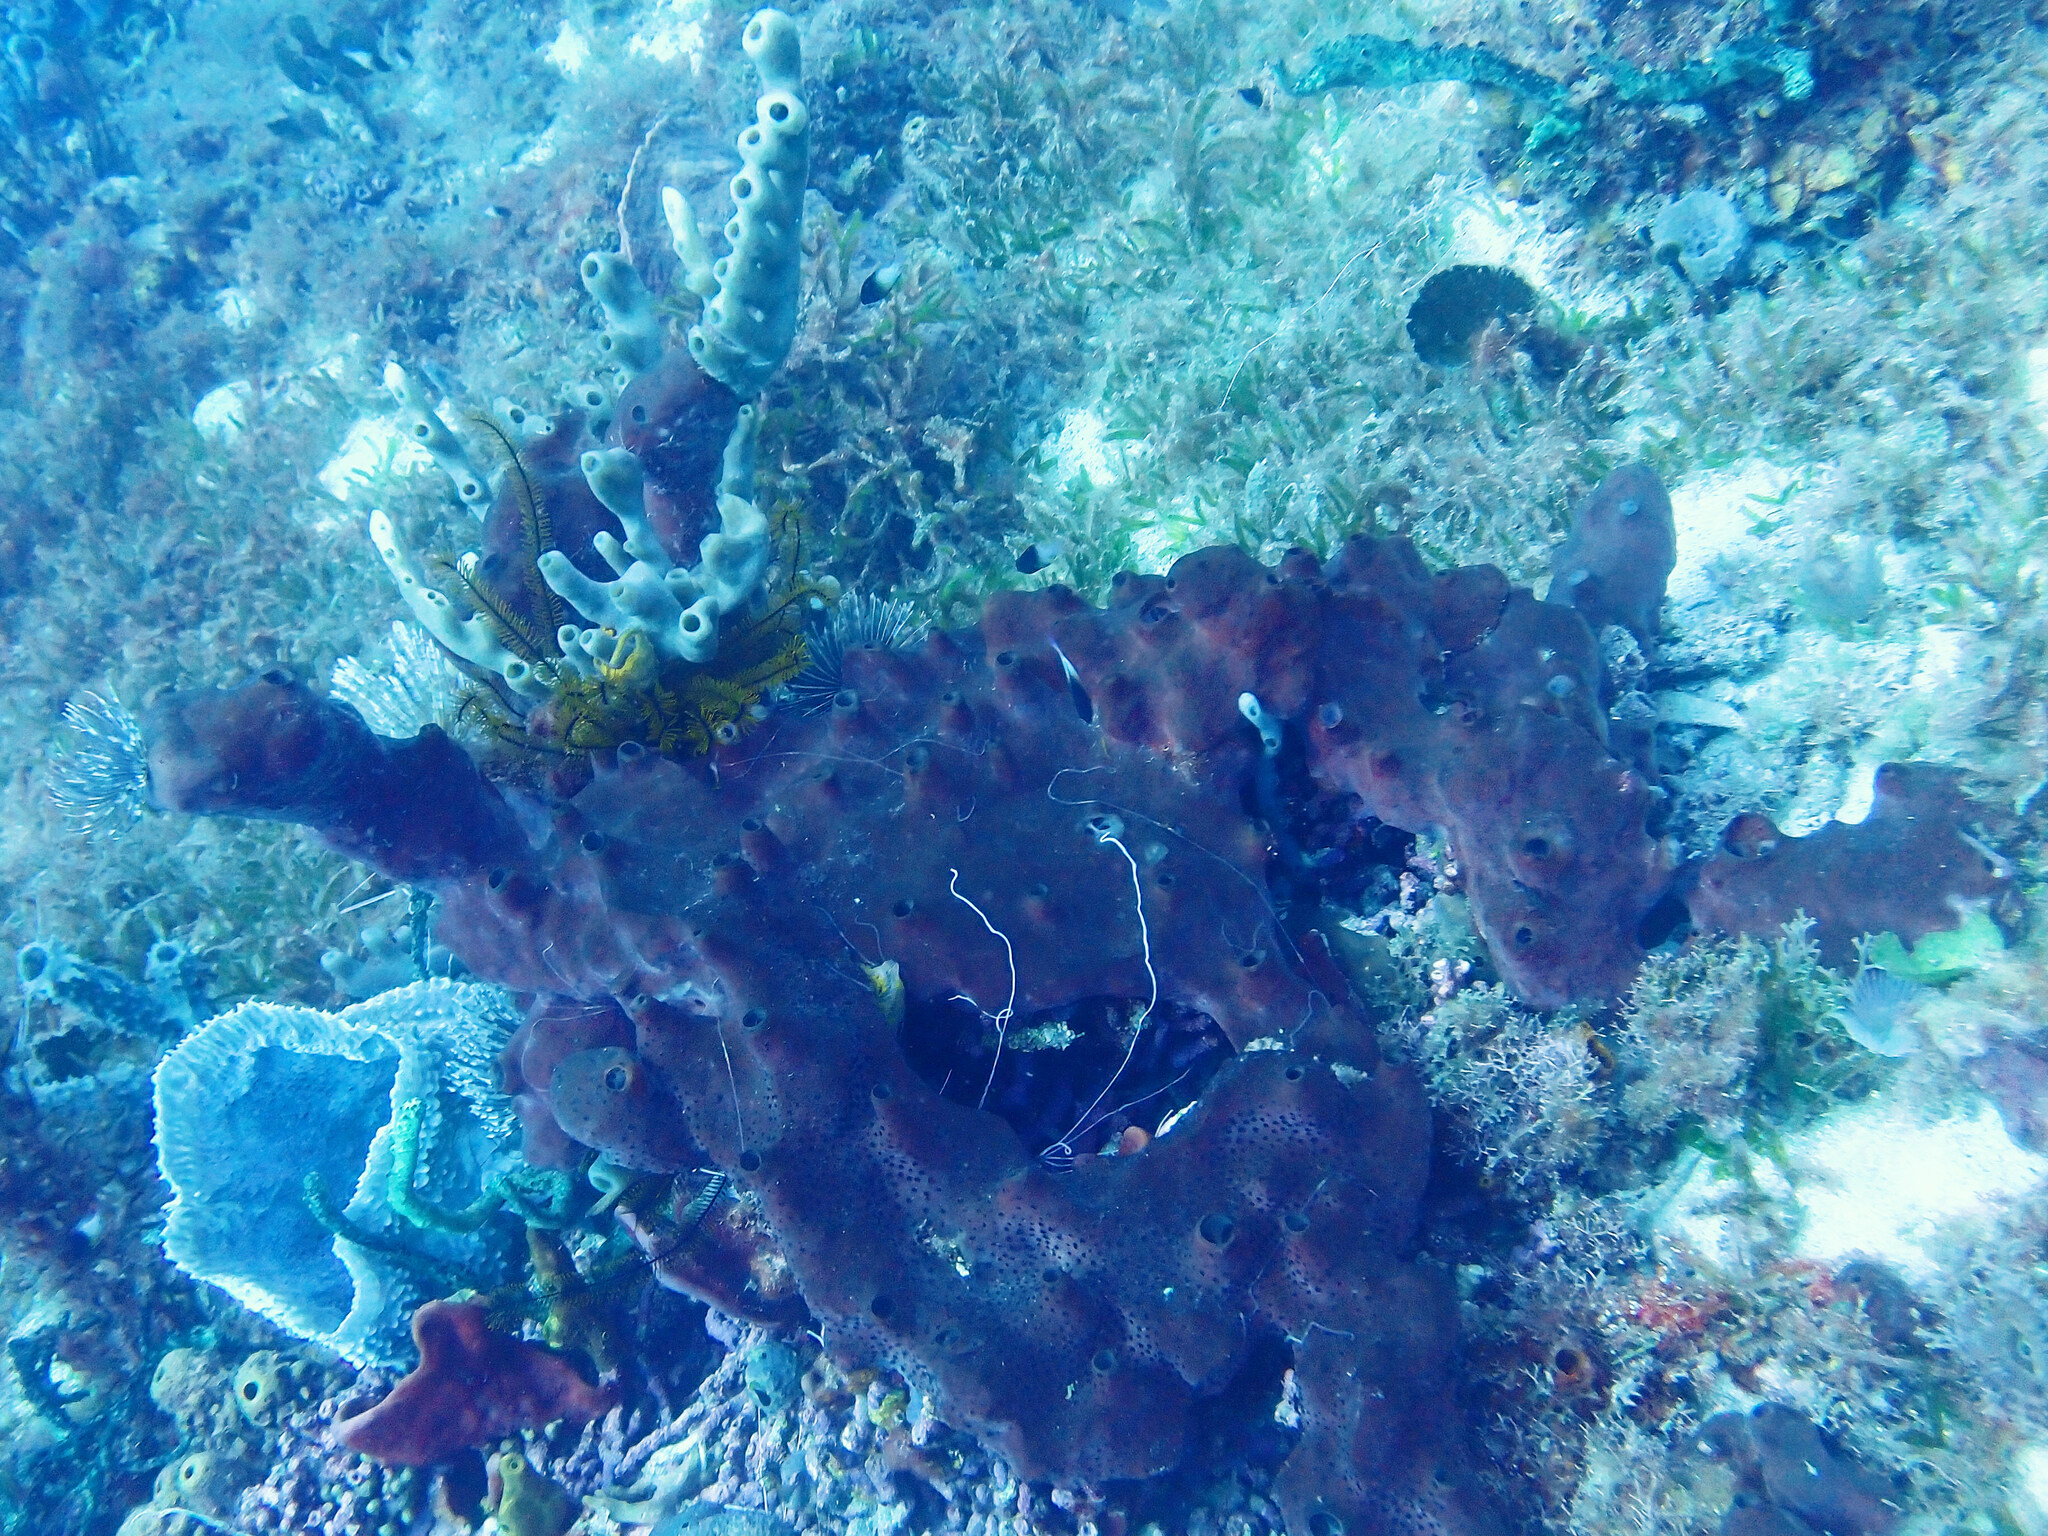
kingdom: Animalia
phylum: Porifera
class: Demospongiae
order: Scopalinida
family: Scopalinidae
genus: Svenzea
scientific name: Svenzea zeai
